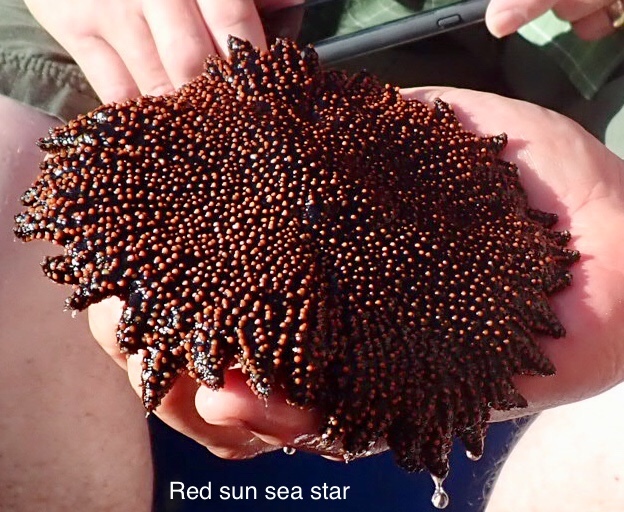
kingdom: Animalia
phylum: Echinodermata
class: Asteroidea
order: Forcipulatida
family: Heliasteridae
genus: Heliaster
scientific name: Heliaster cumingi
